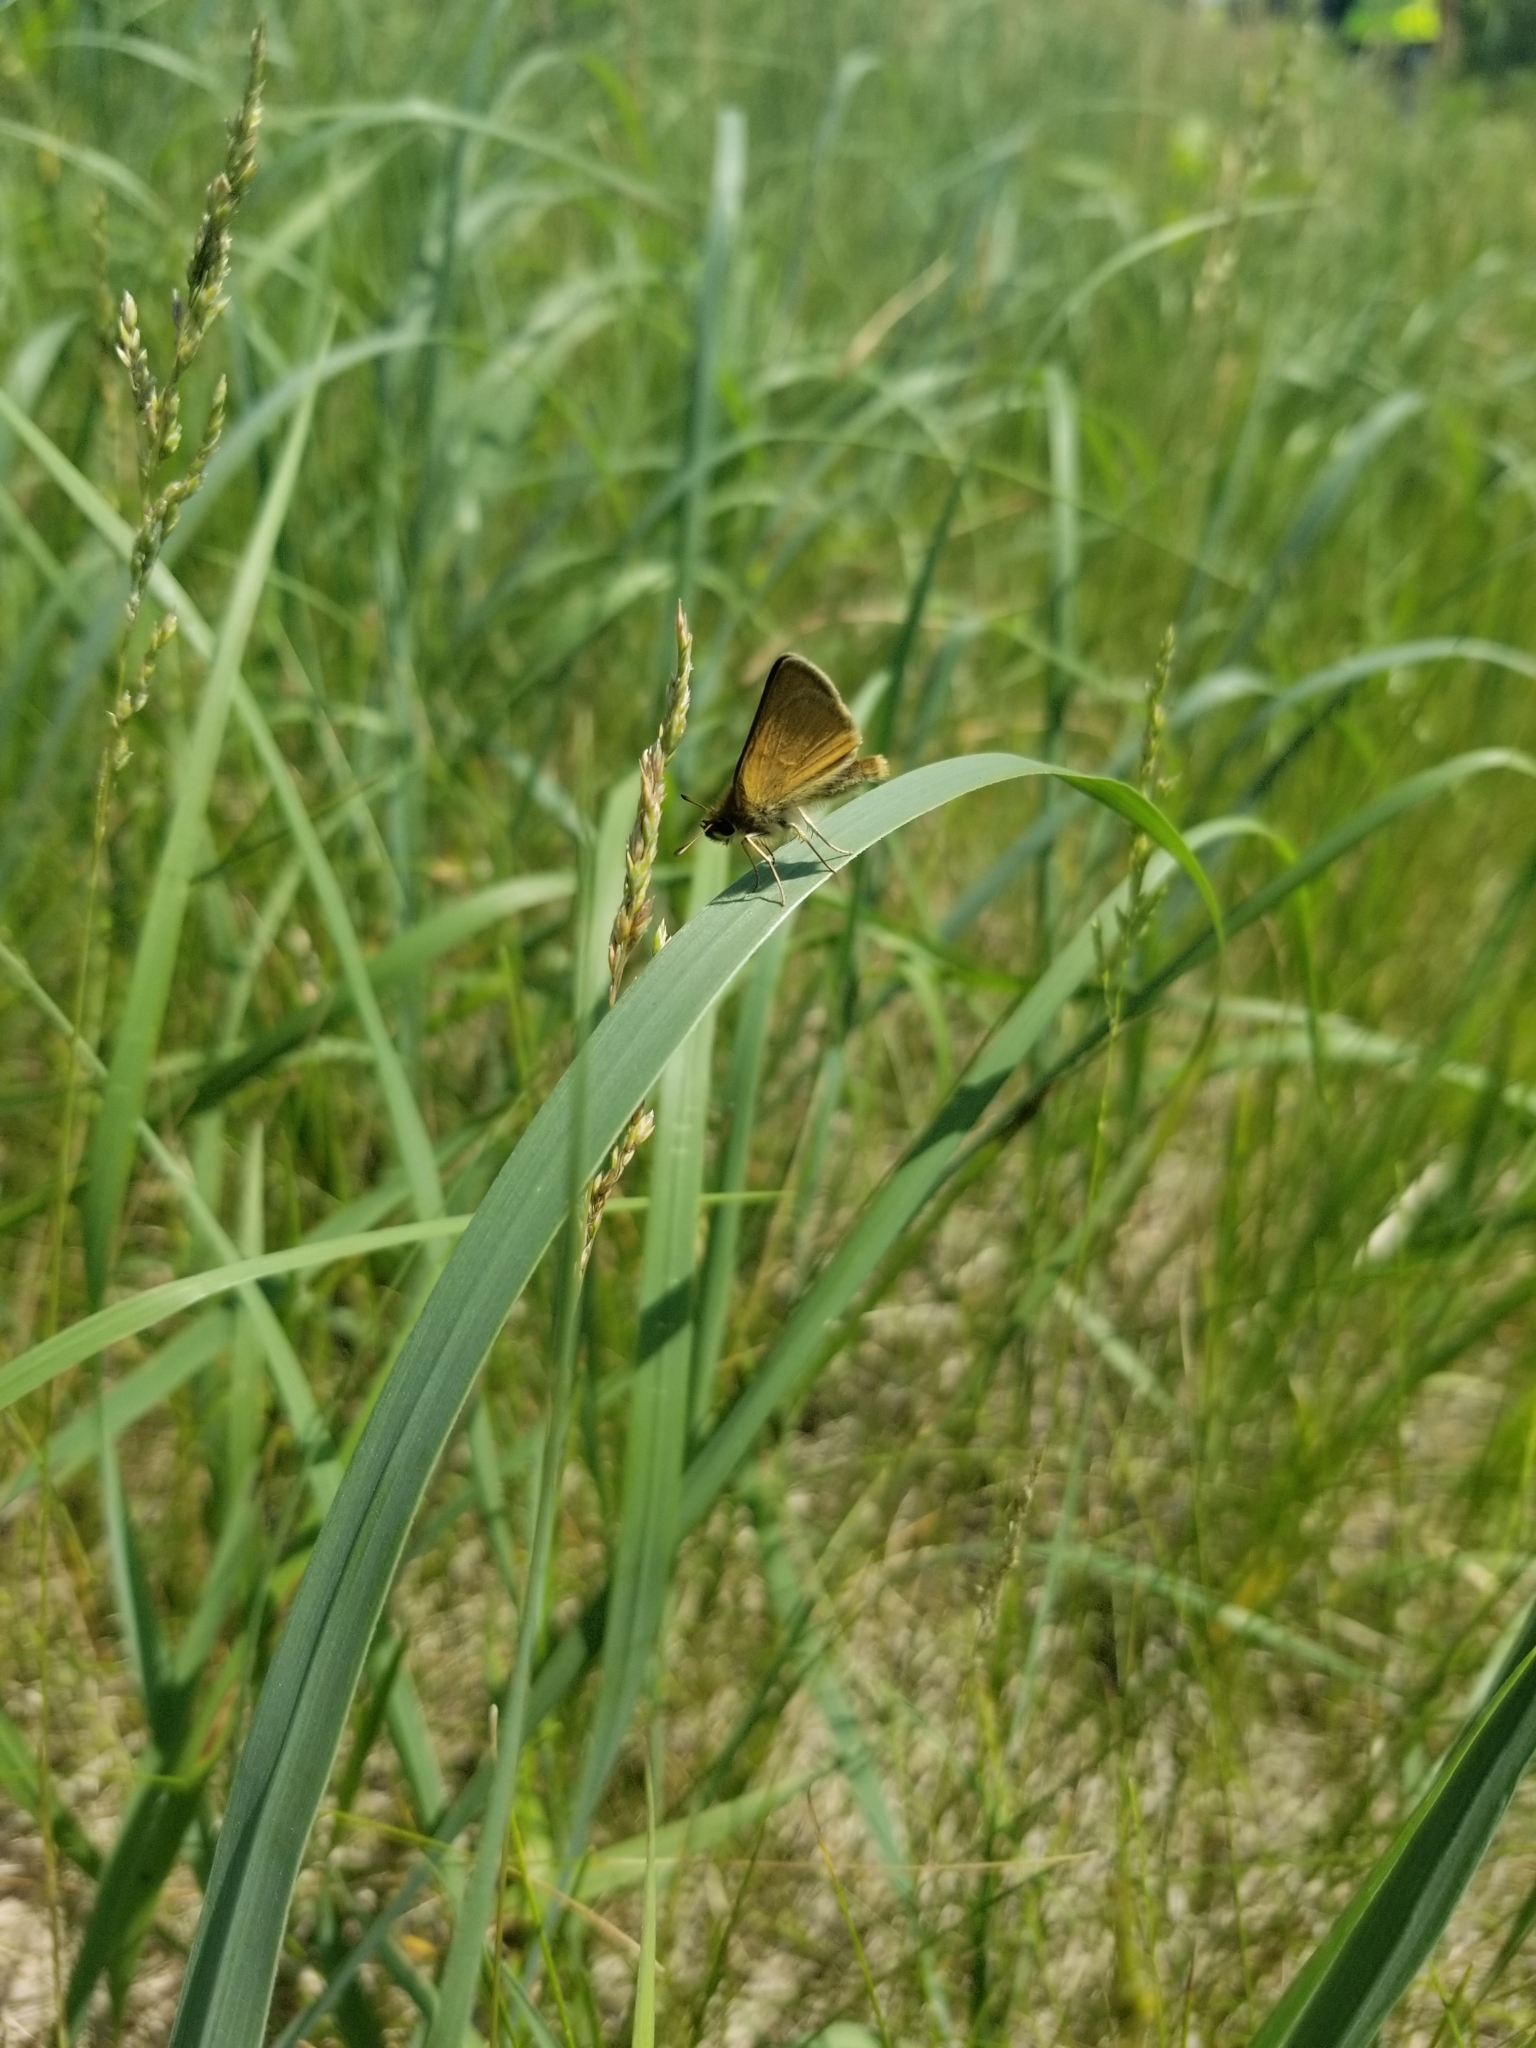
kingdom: Animalia
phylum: Arthropoda
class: Insecta
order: Lepidoptera
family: Hesperiidae
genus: Thymelicus
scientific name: Thymelicus lineola
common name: Essex skipper
